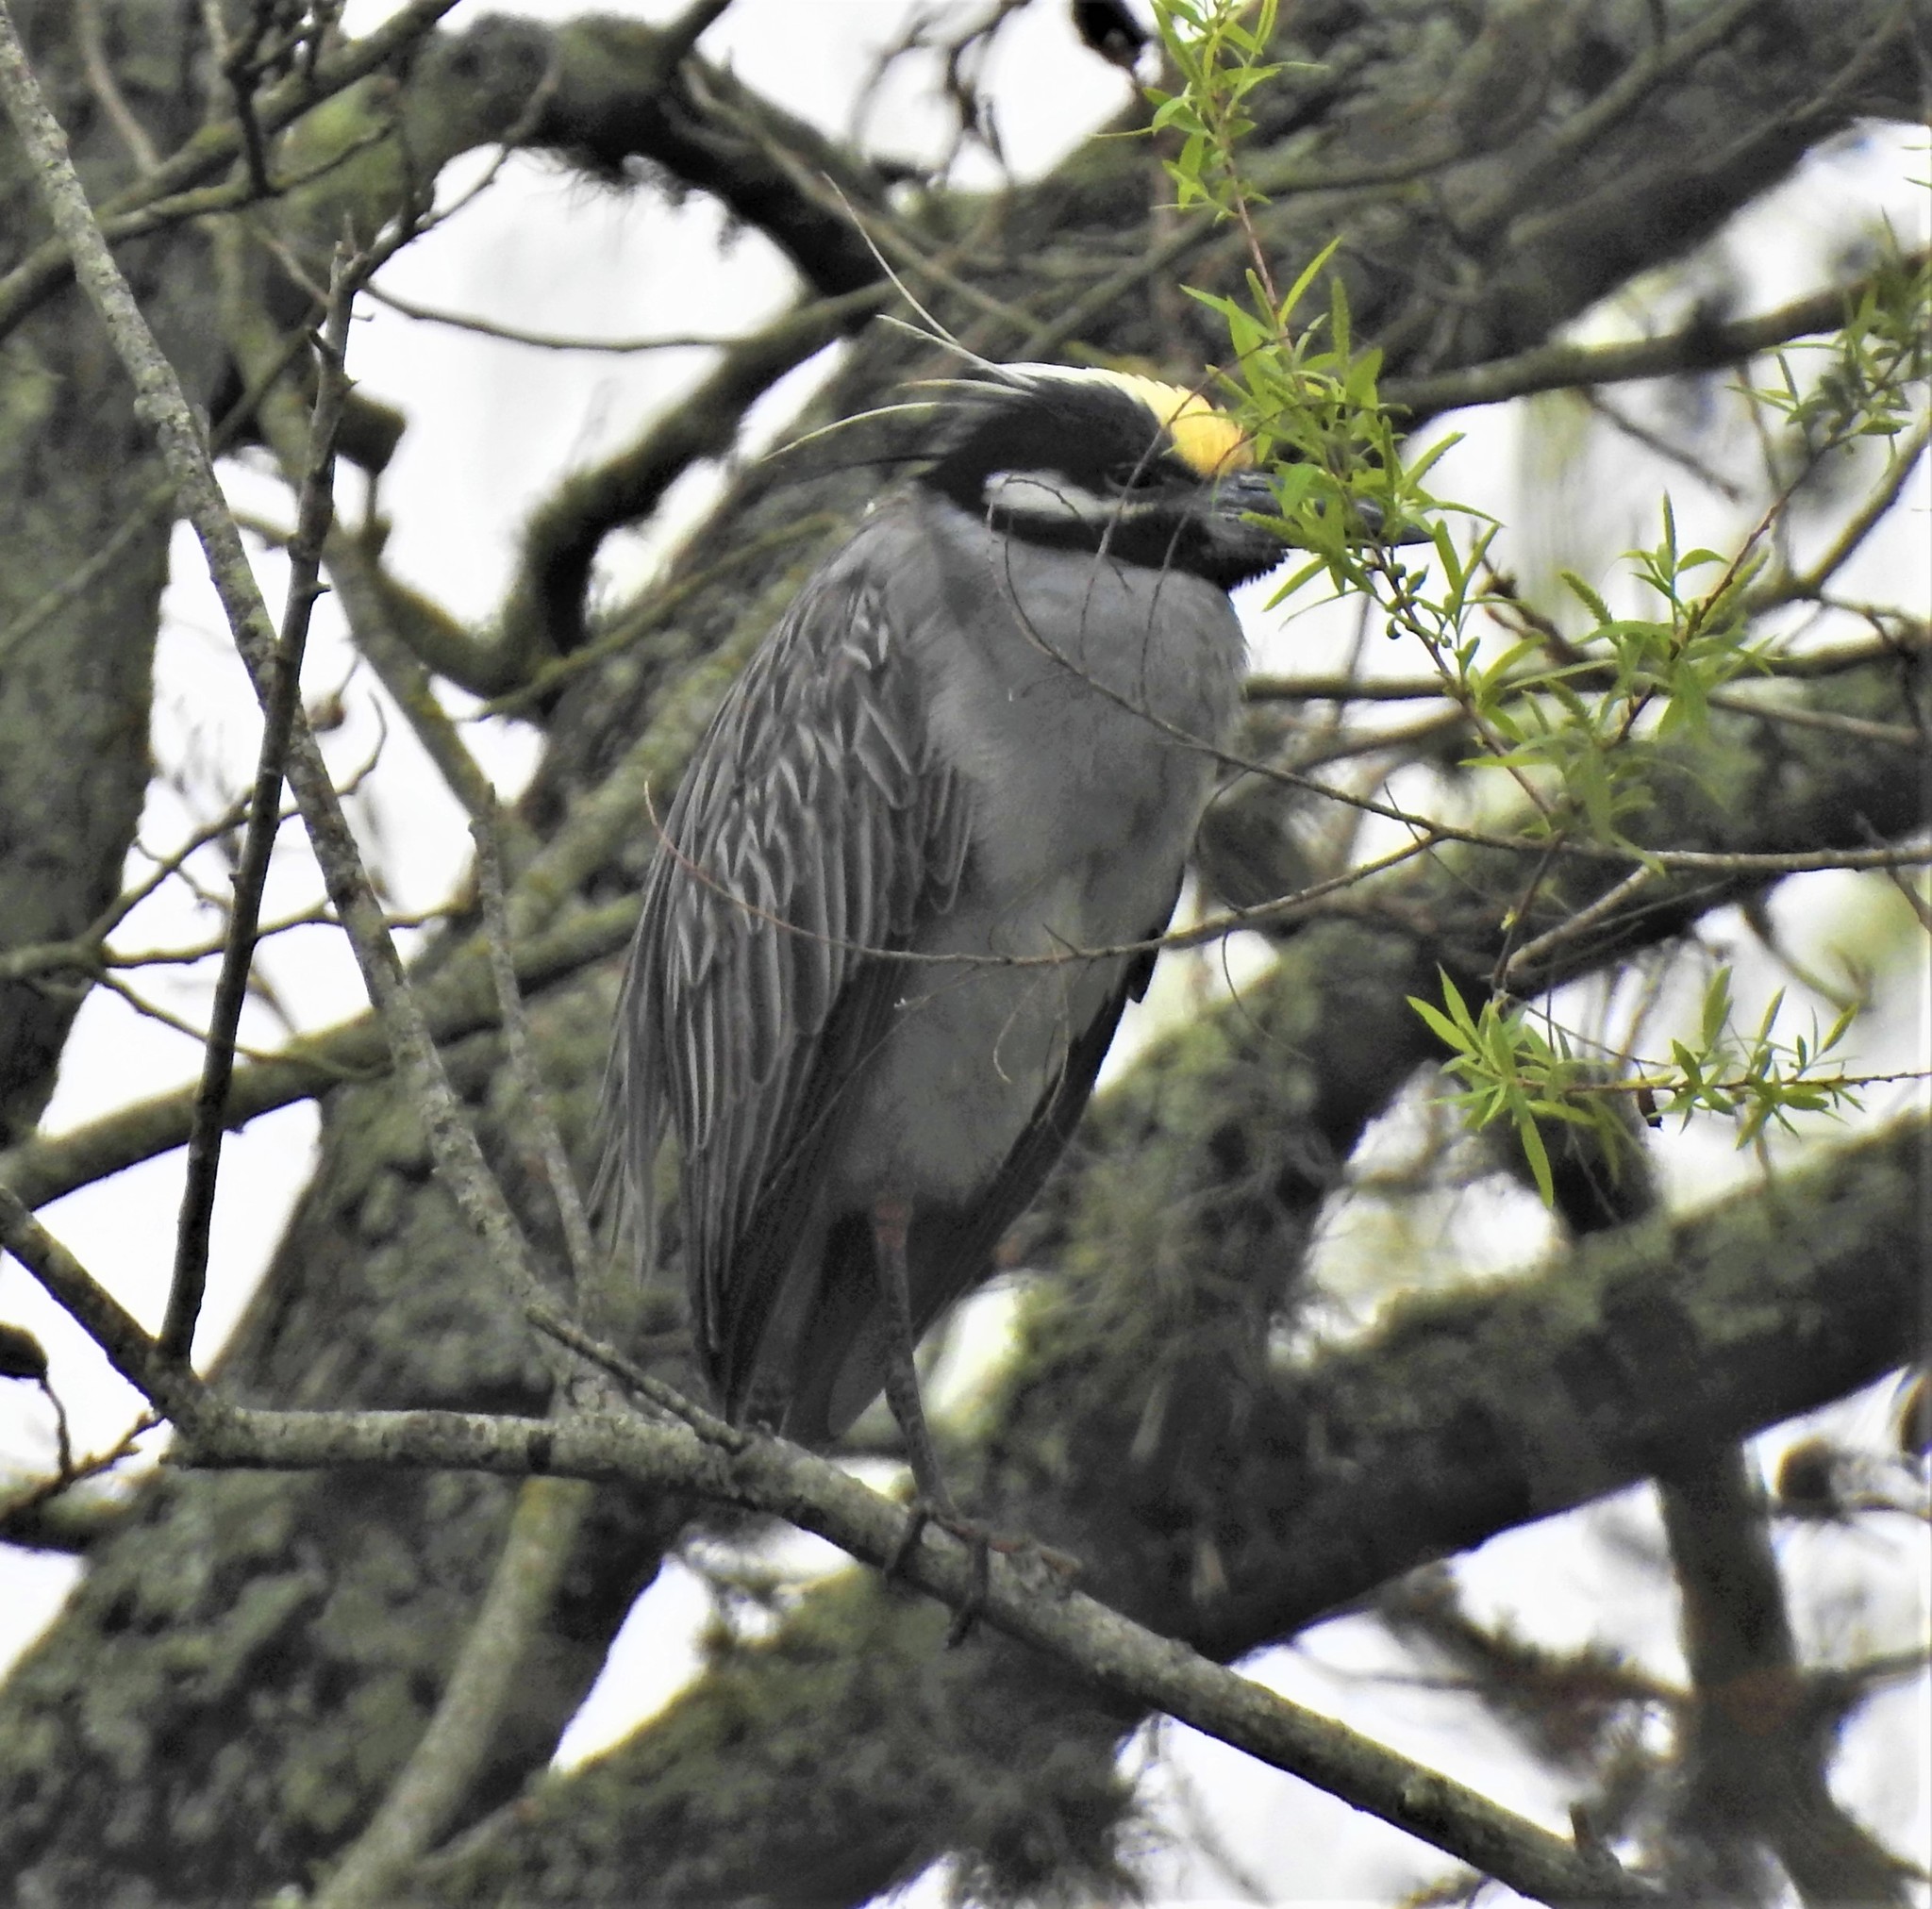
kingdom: Animalia
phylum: Chordata
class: Aves
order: Pelecaniformes
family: Ardeidae
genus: Nyctanassa
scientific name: Nyctanassa violacea
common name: Yellow-crowned night heron
